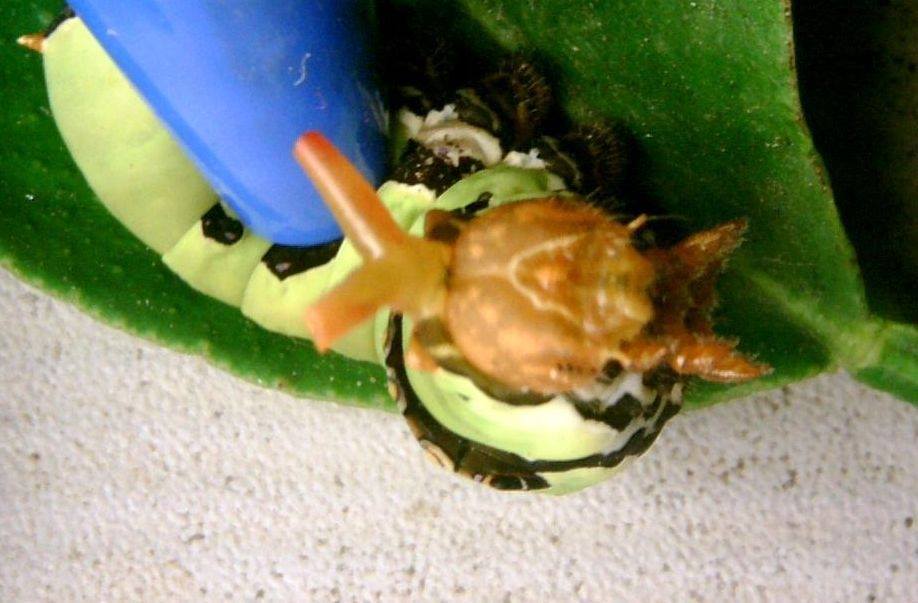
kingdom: Animalia
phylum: Arthropoda
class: Insecta
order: Lepidoptera
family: Papilionidae
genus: Papilio
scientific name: Papilio demoleus
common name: Lime butterfly
